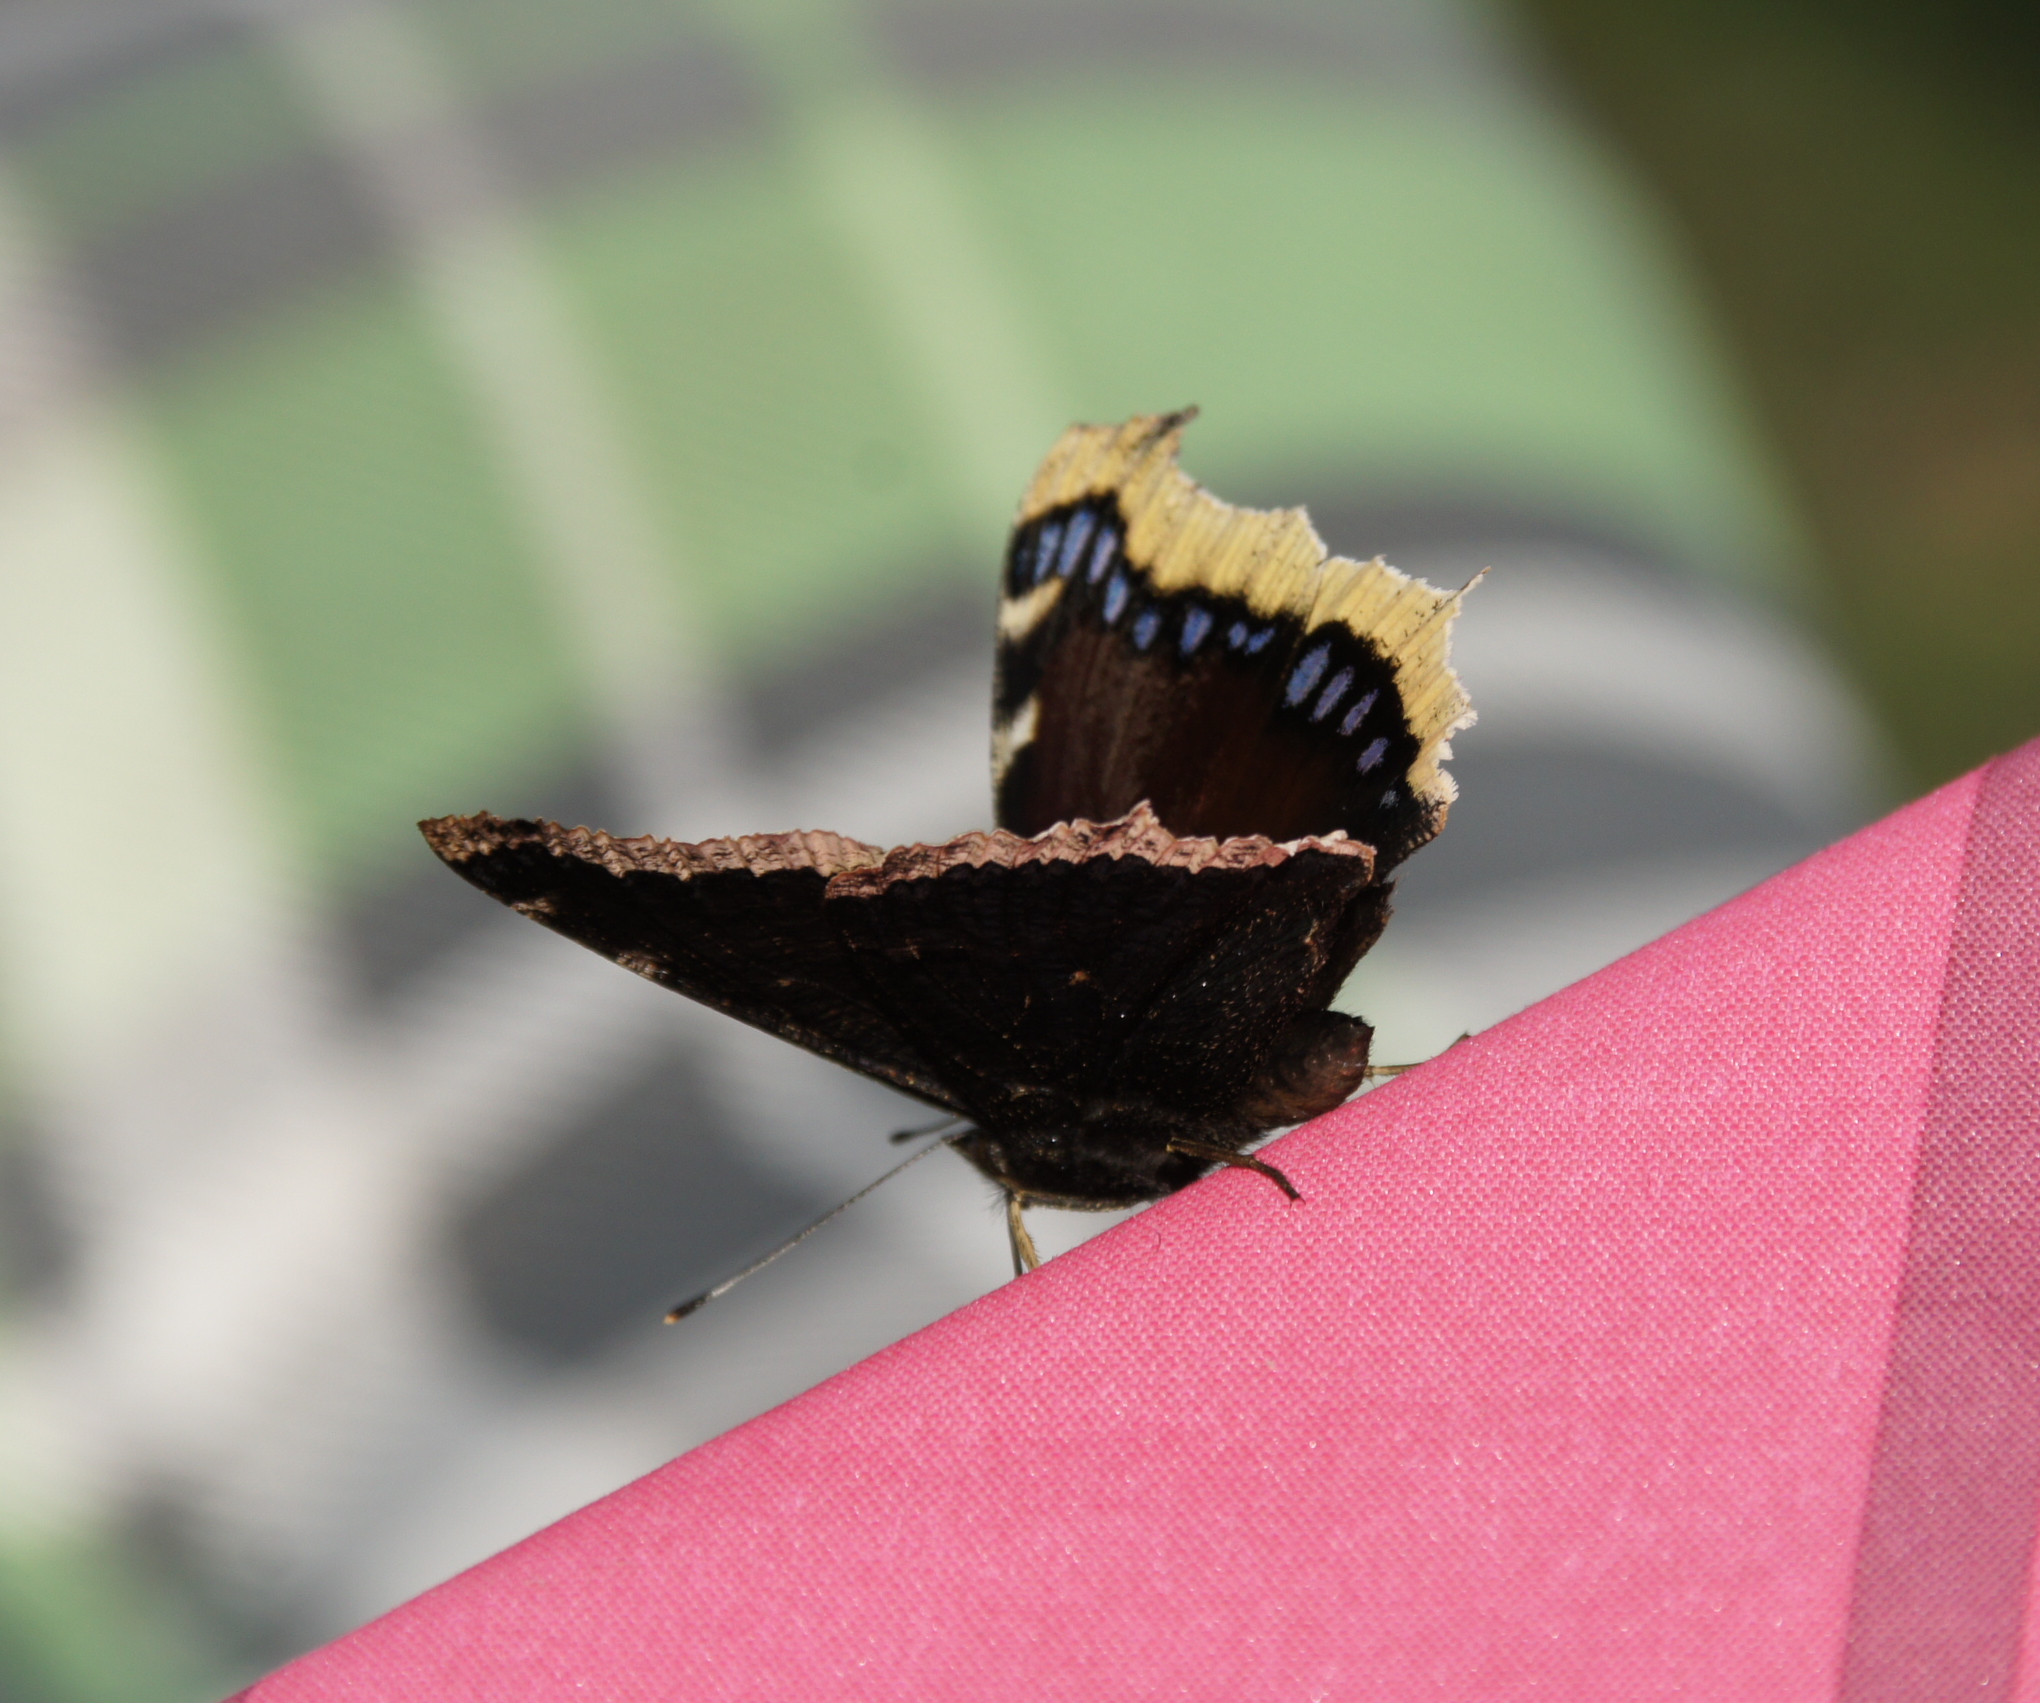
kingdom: Animalia
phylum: Arthropoda
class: Insecta
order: Lepidoptera
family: Nymphalidae
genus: Nymphalis
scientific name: Nymphalis antiopa
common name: Camberwell beauty
